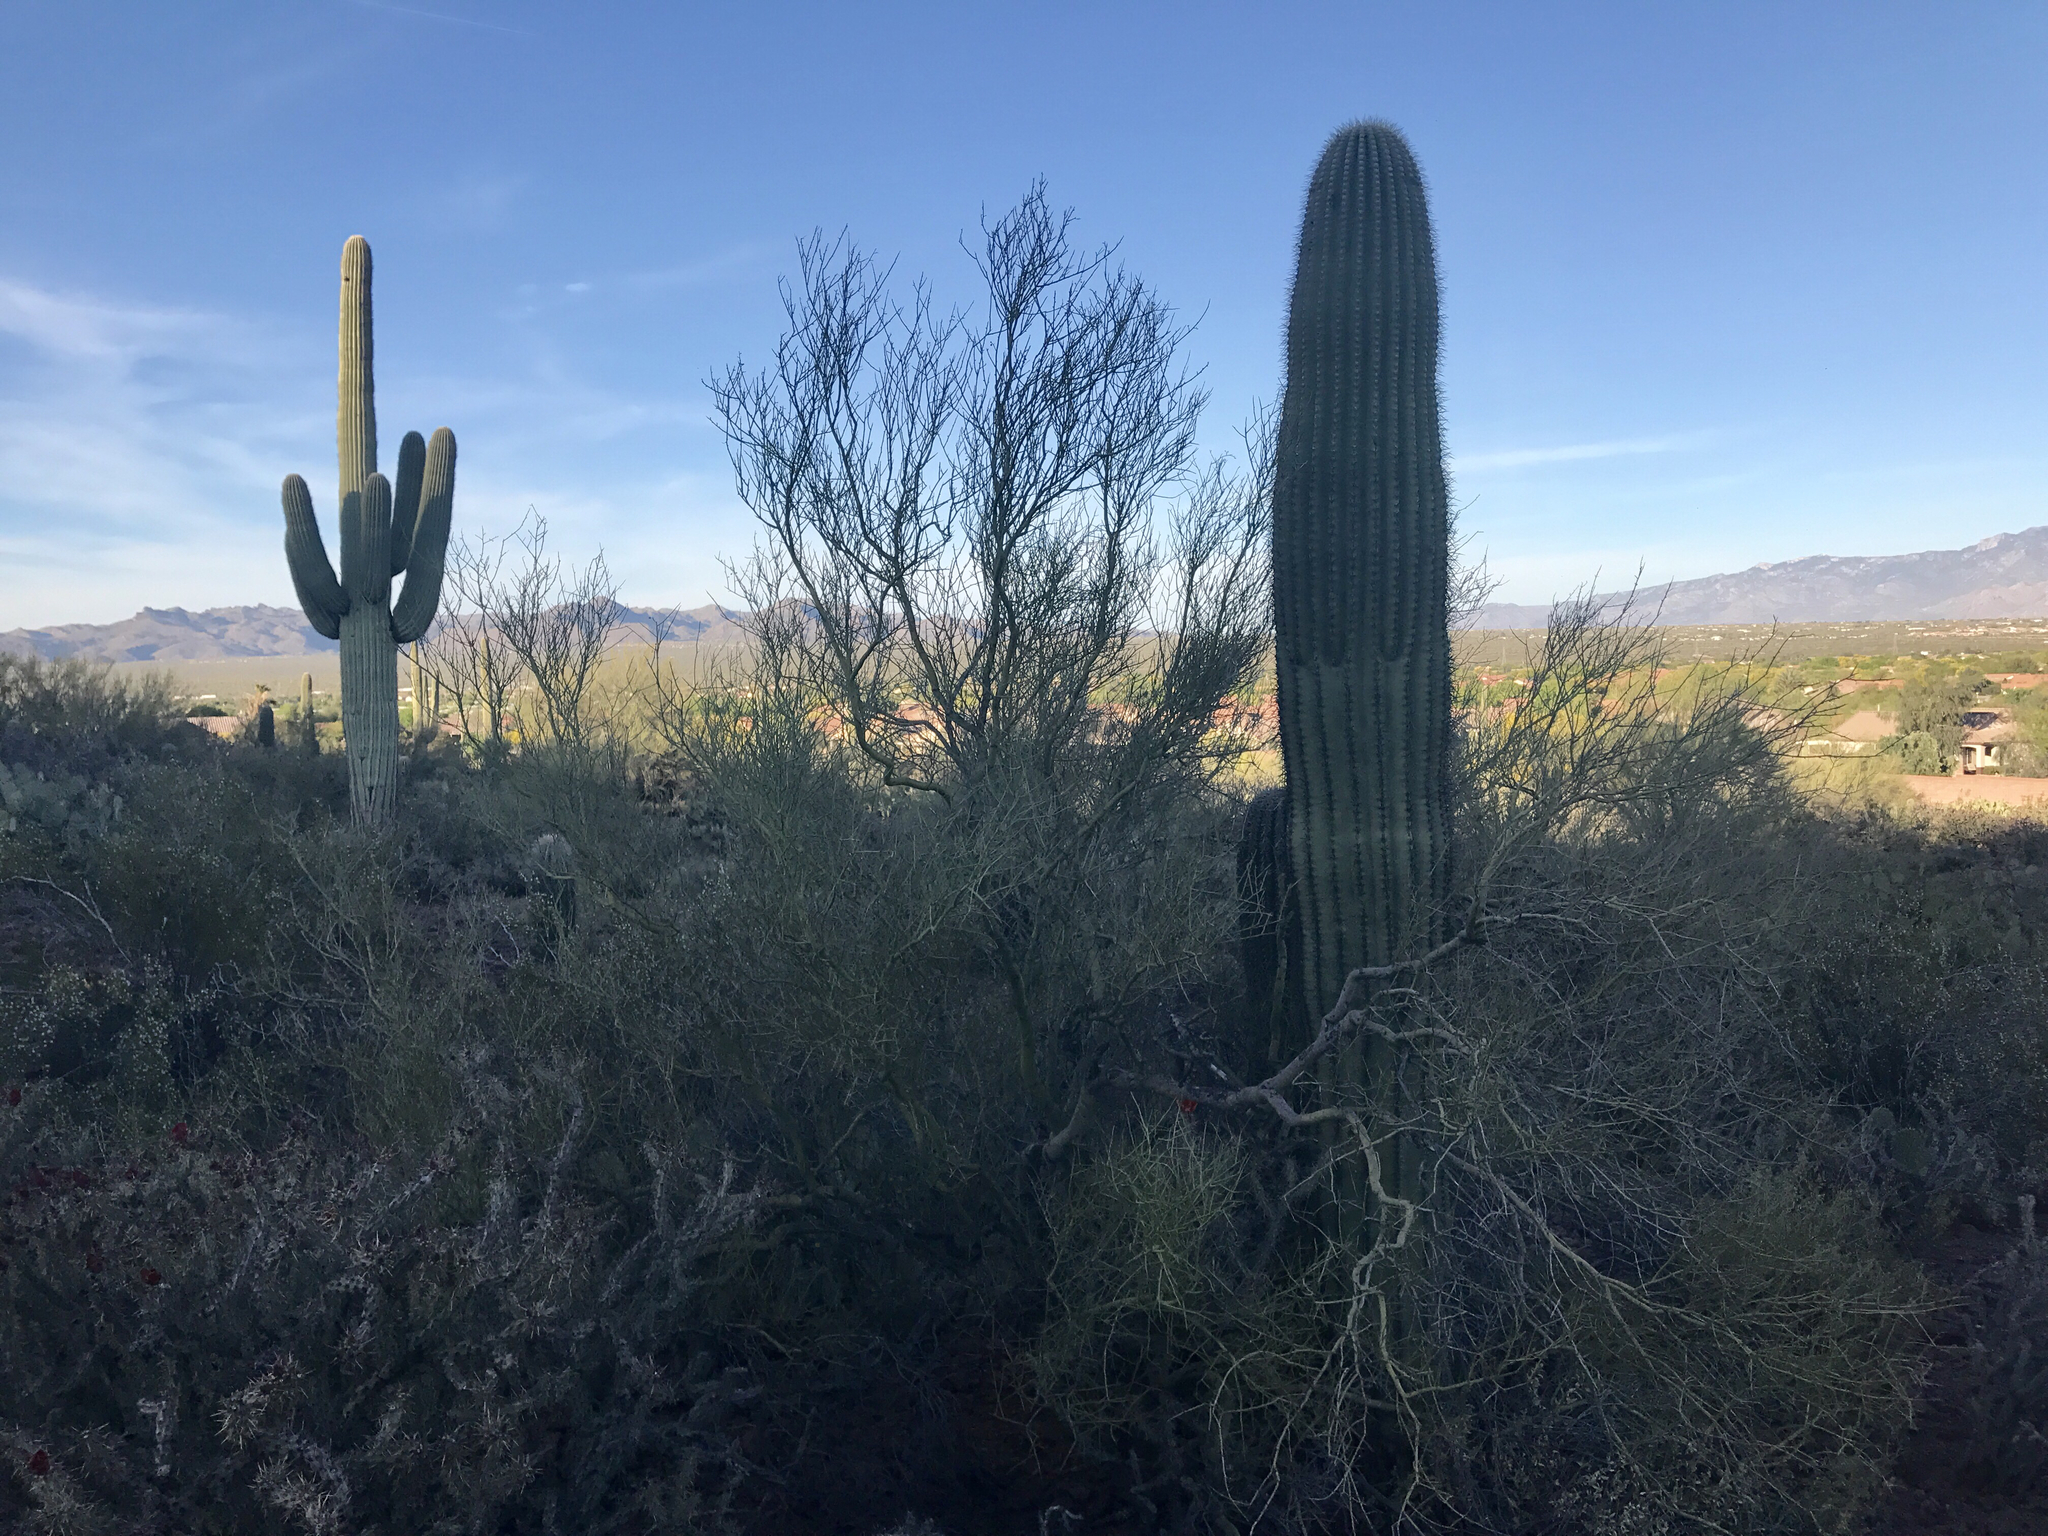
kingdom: Plantae
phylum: Tracheophyta
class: Magnoliopsida
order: Fabales
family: Fabaceae
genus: Parkinsonia
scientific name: Parkinsonia microphylla
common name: Yellow paloverde
